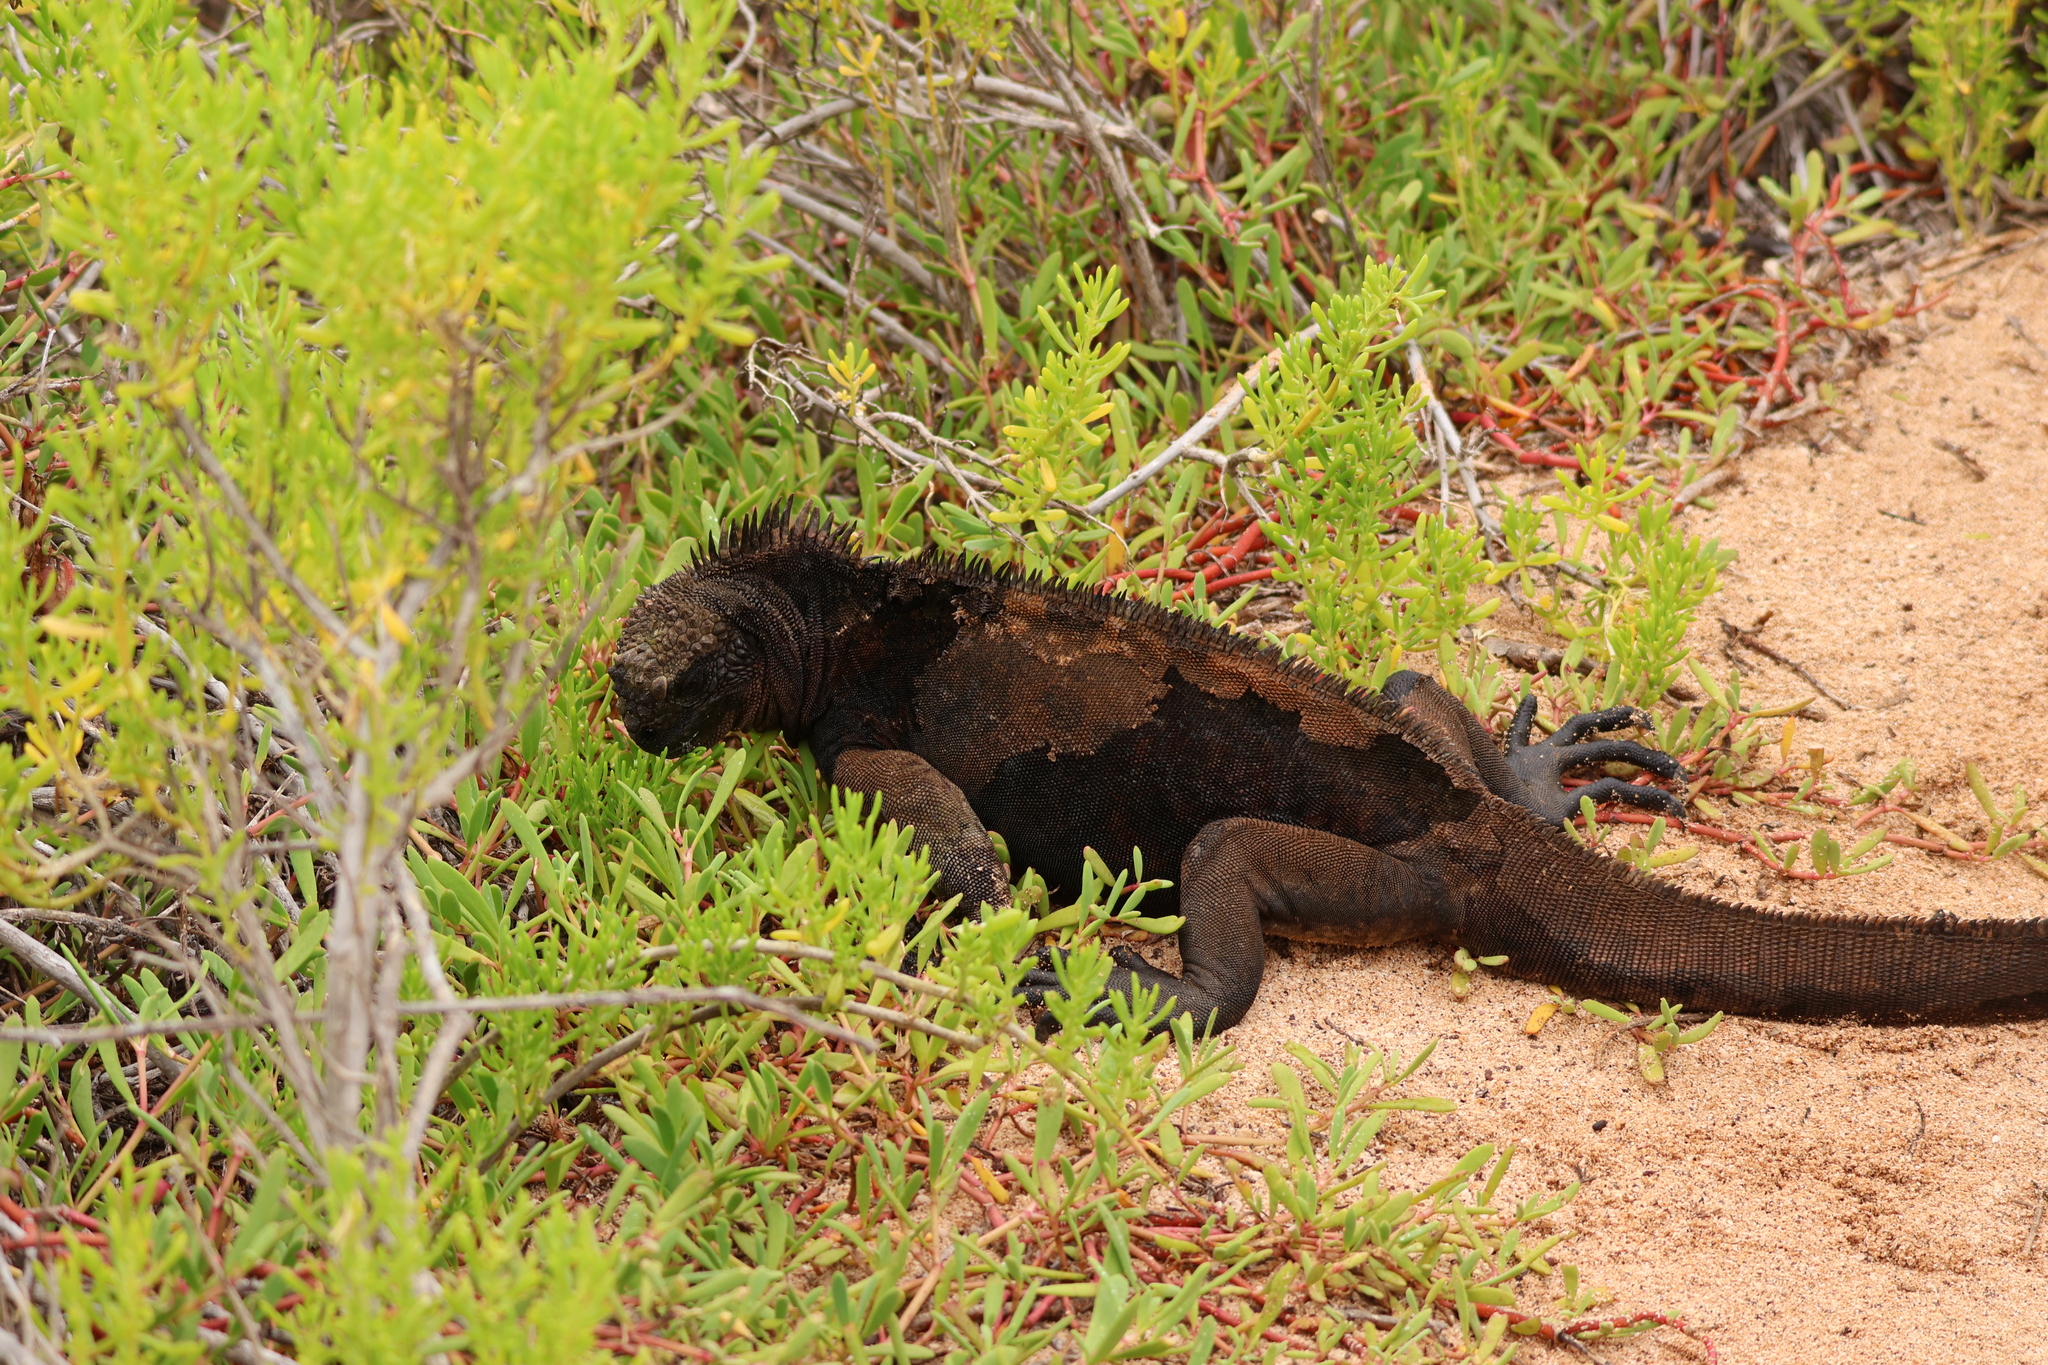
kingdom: Animalia
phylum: Chordata
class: Squamata
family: Iguanidae
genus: Amblyrhynchus
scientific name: Amblyrhynchus cristatus
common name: Marine iguana
